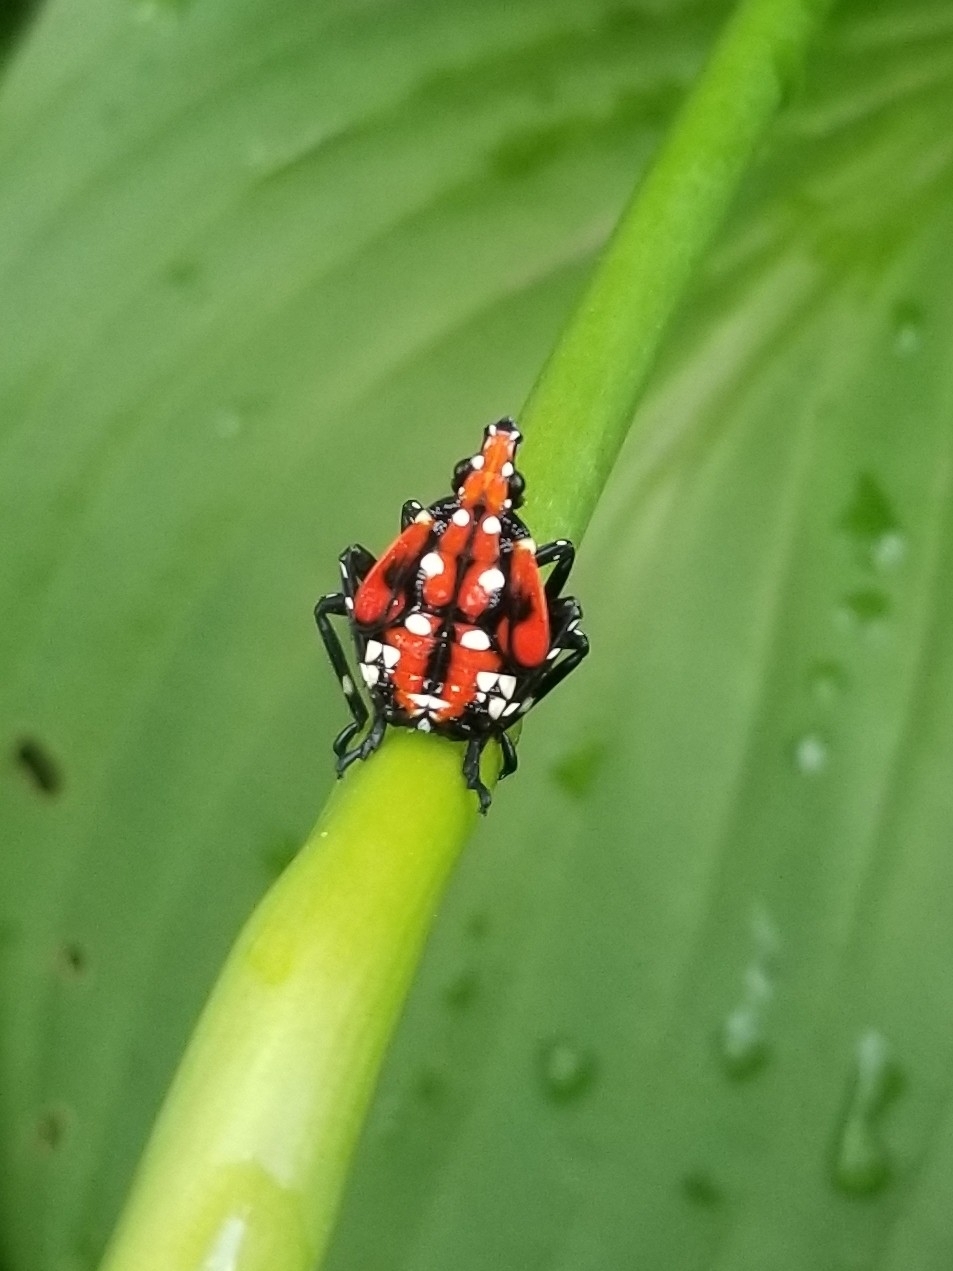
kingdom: Animalia
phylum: Arthropoda
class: Insecta
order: Hemiptera
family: Fulgoridae
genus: Lycorma
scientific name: Lycorma delicatula
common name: Spotted lanternfly
